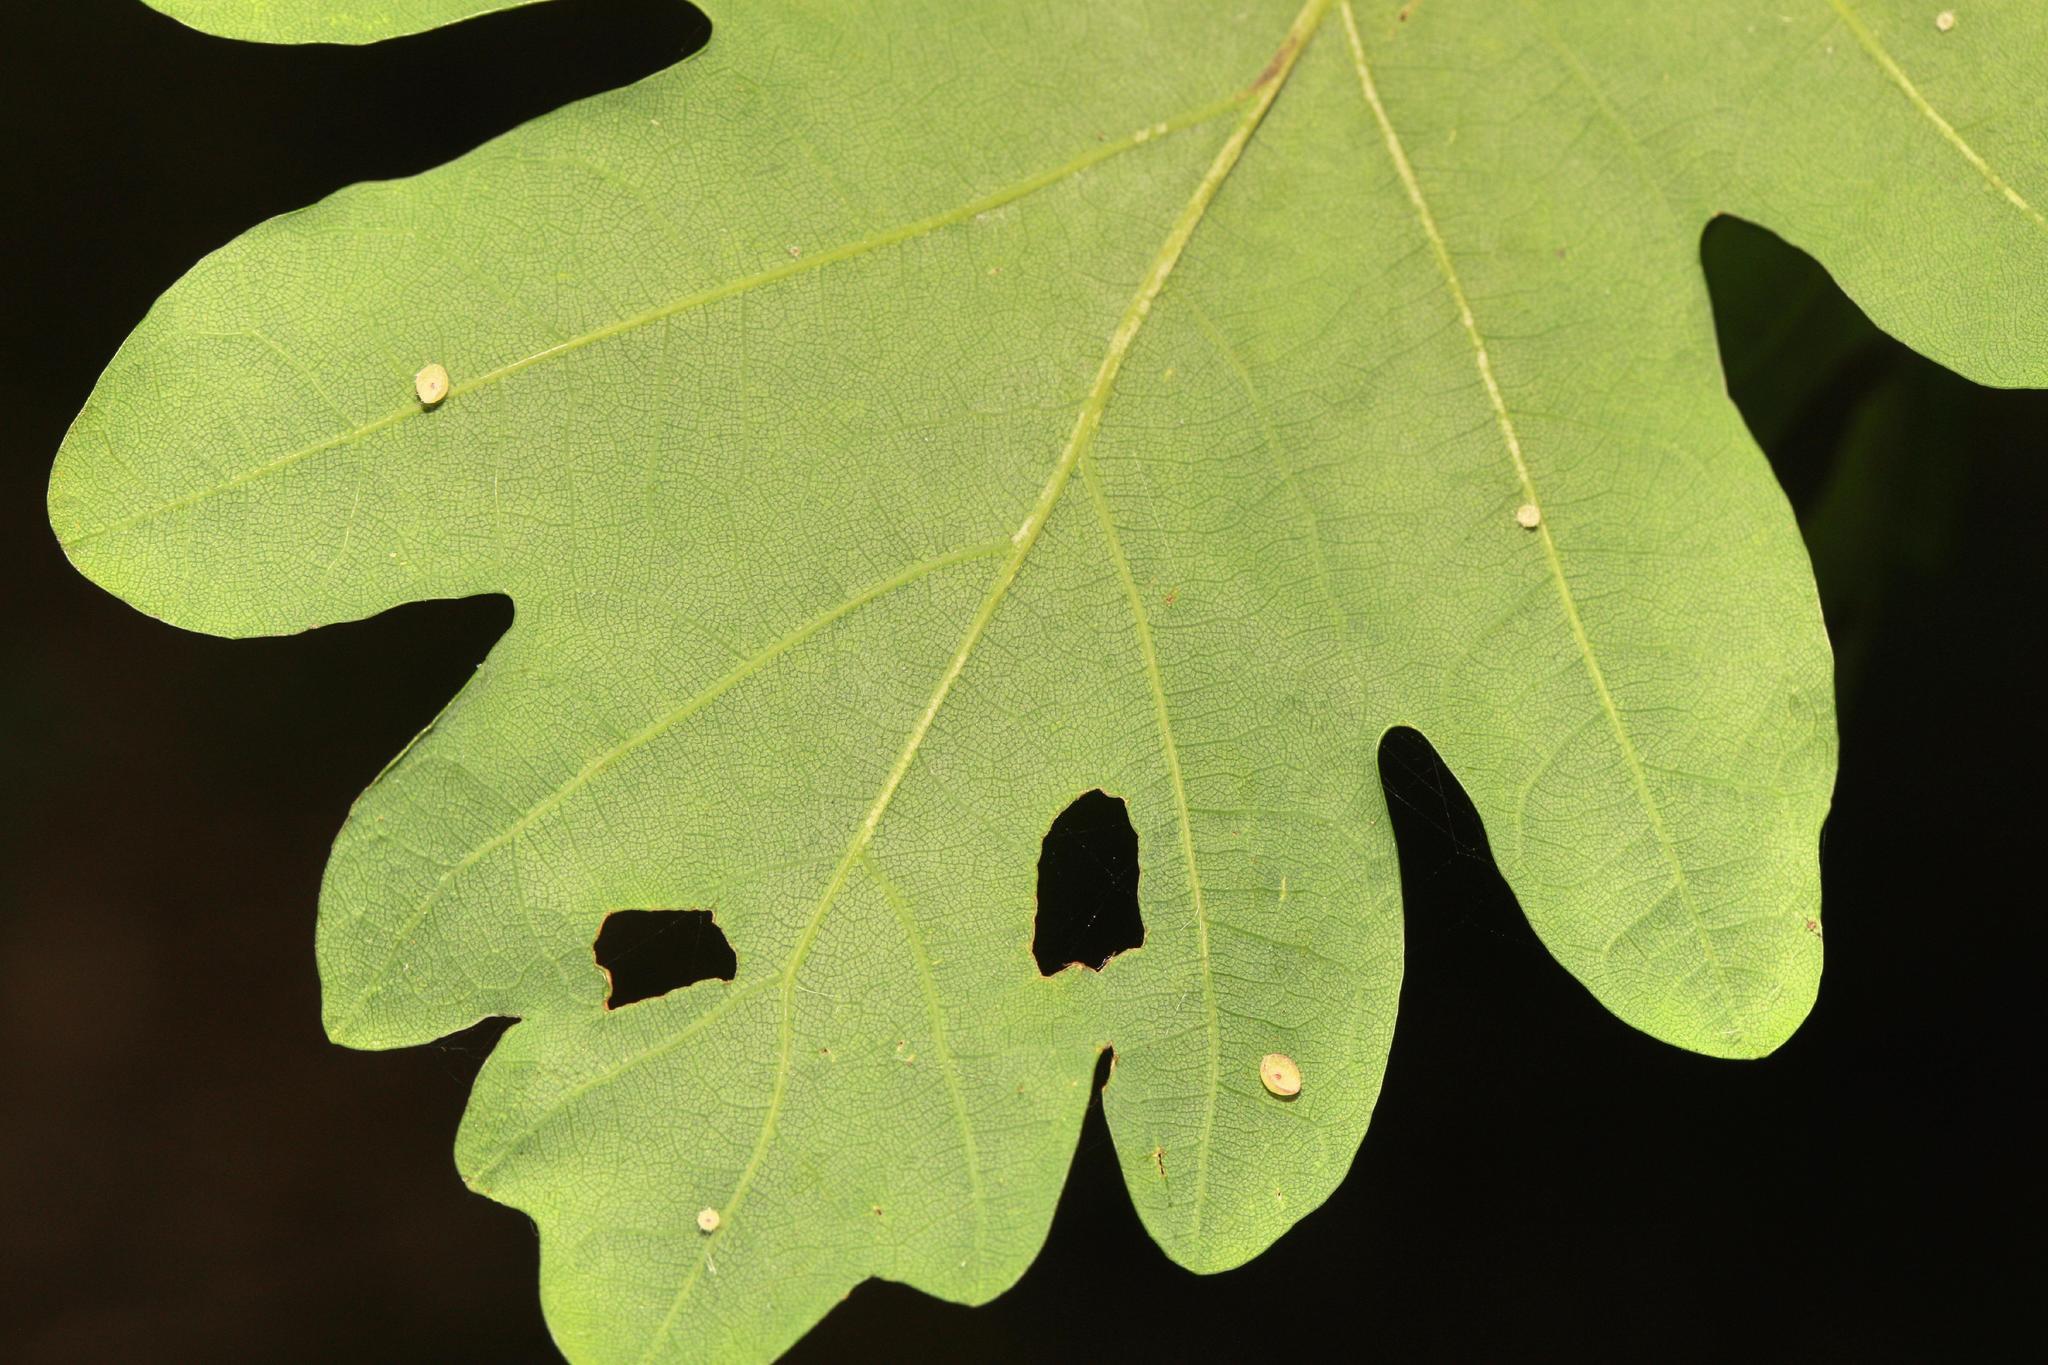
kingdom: Animalia
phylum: Arthropoda
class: Insecta
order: Hymenoptera
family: Cynipidae
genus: Neuroterus
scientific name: Neuroterus albipes
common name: Smooth spangle gall
